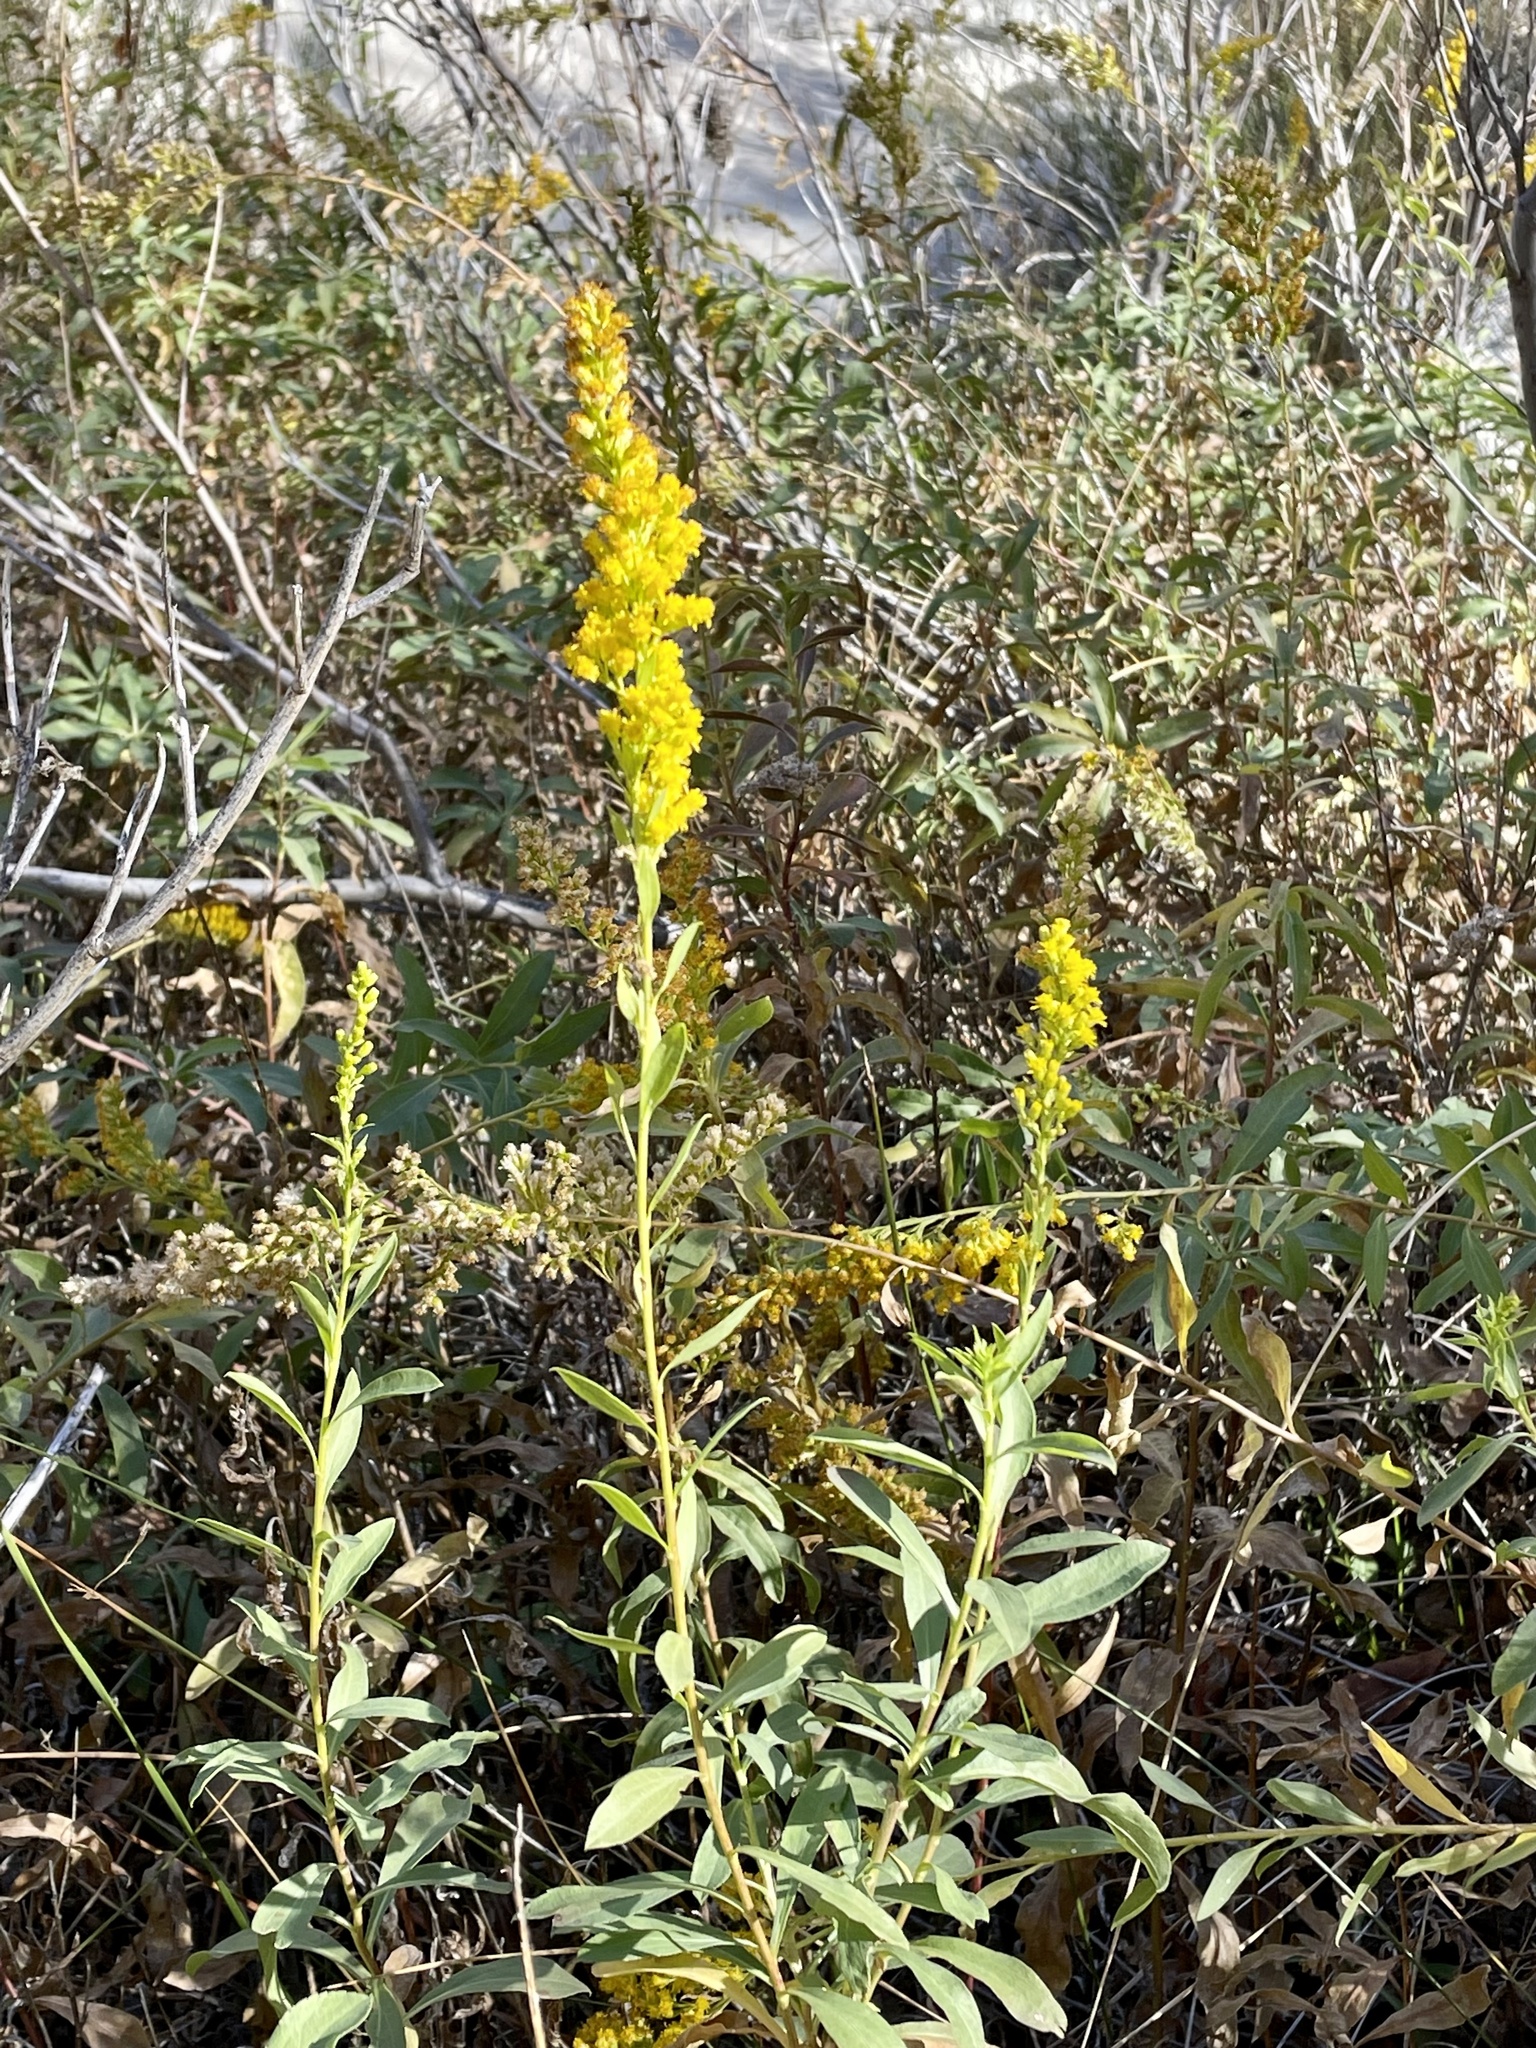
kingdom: Plantae
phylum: Tracheophyta
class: Magnoliopsida
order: Asterales
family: Asteraceae
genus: Solidago
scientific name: Solidago velutina
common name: Three-nerve goldenrod
